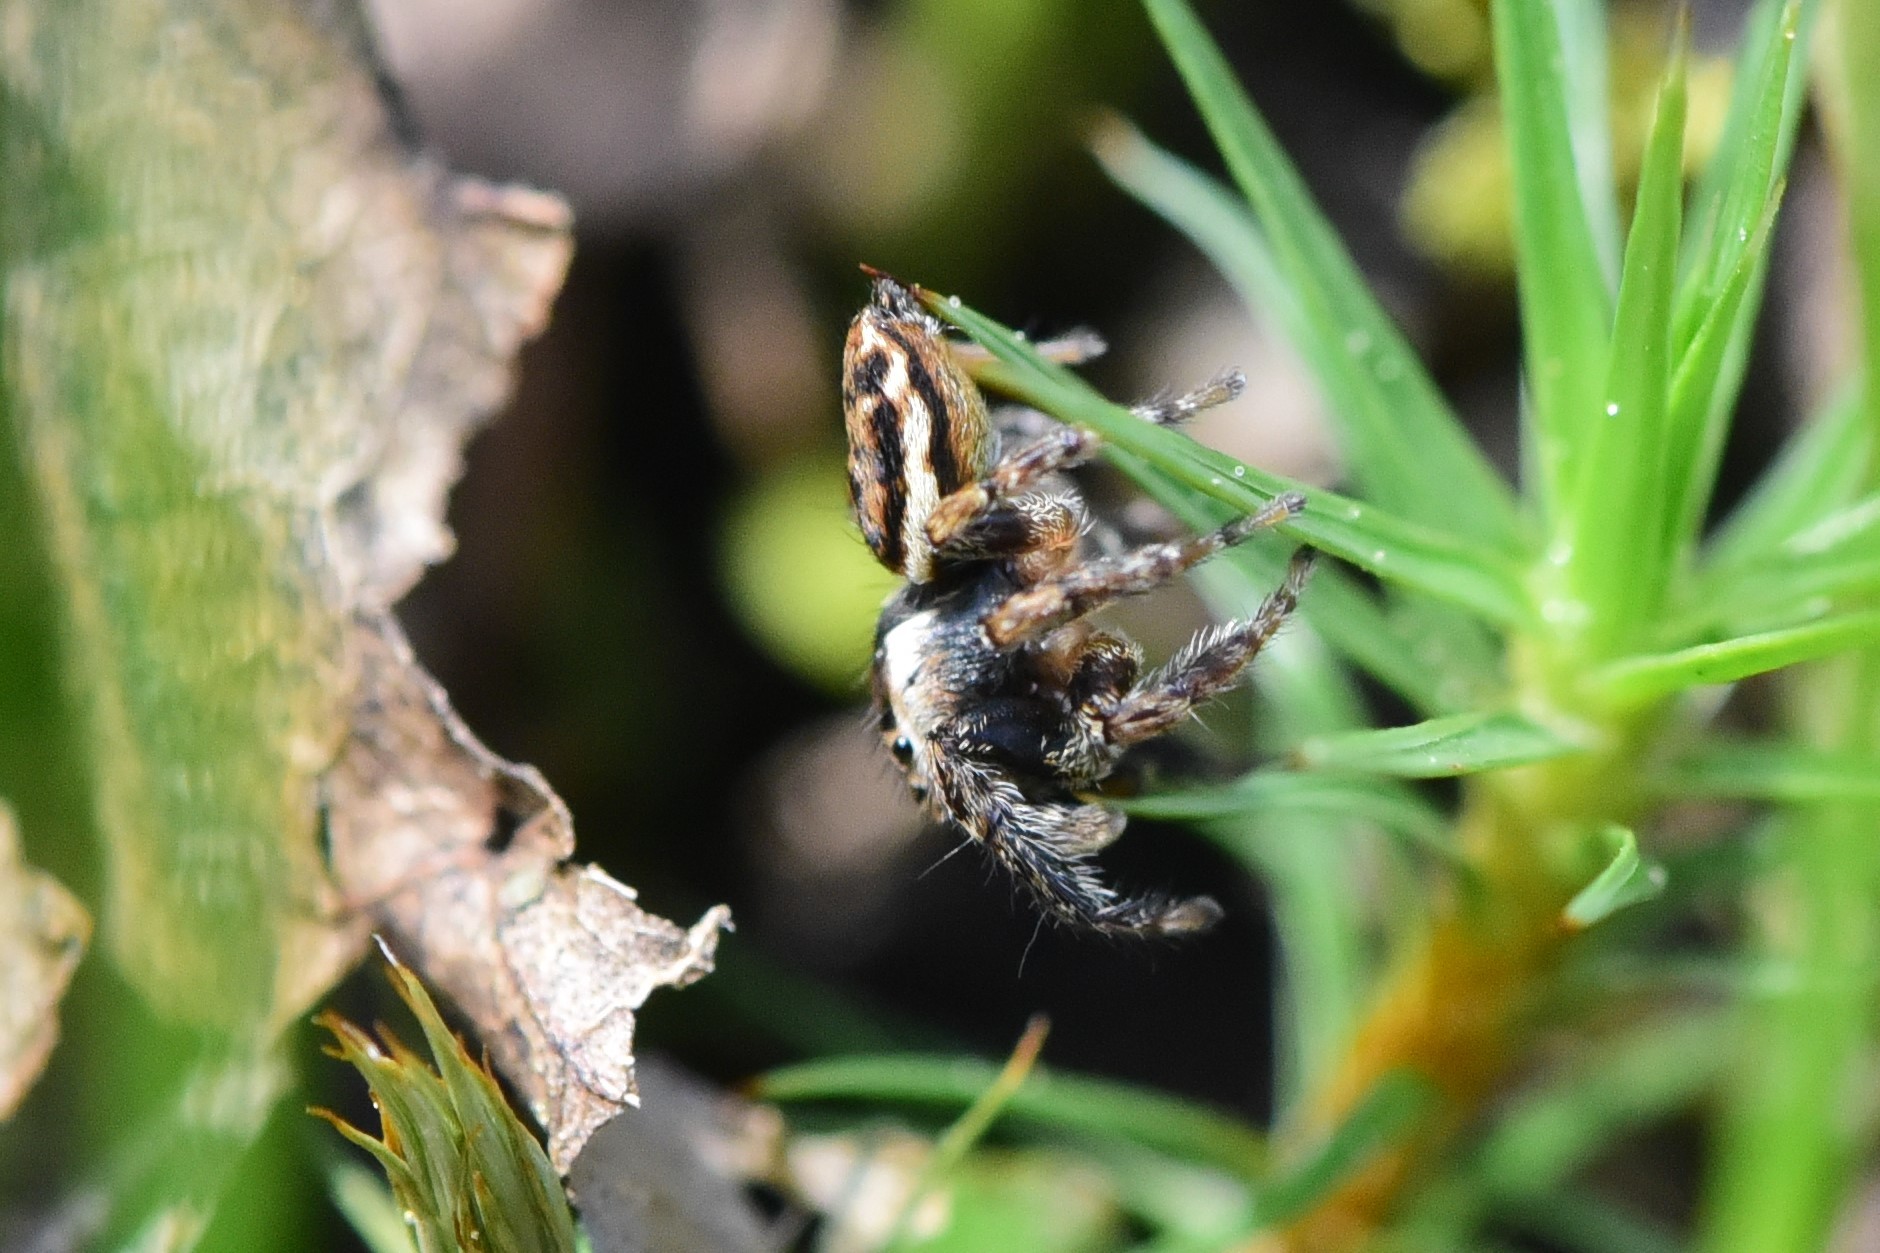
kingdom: Animalia
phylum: Arthropoda
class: Arachnida
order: Araneae
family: Salticidae
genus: Evarcha
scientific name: Evarcha proszynskii
